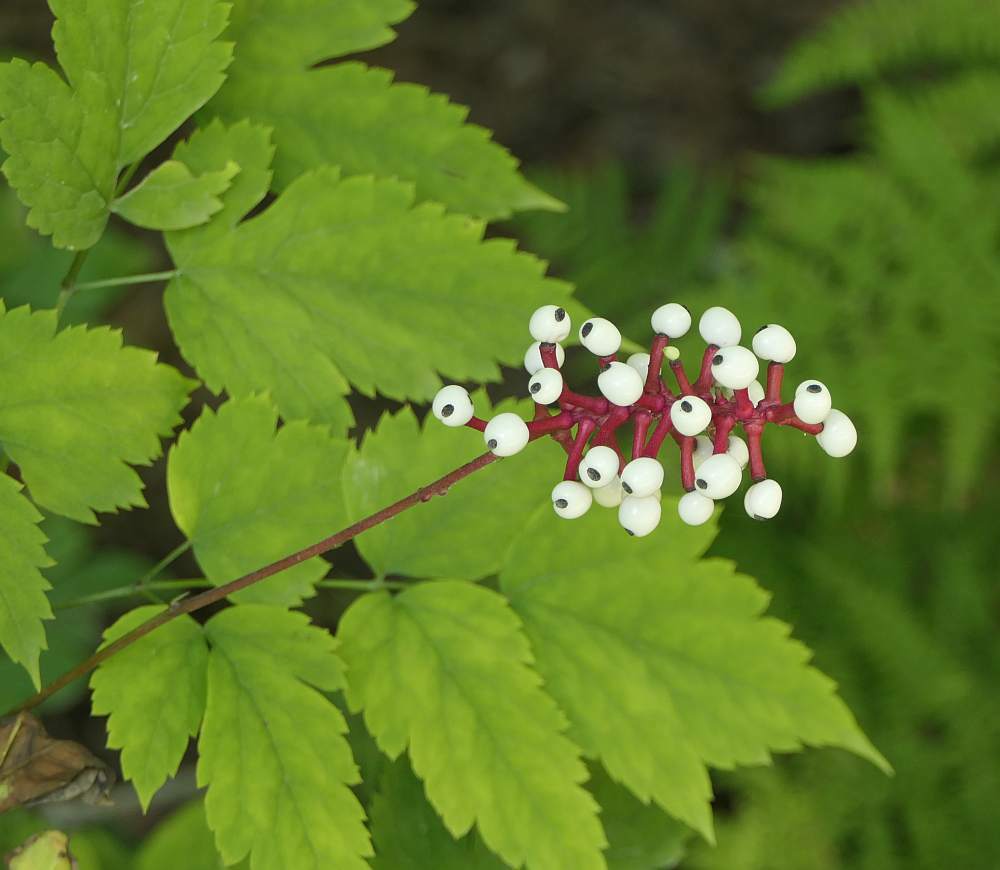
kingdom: Plantae
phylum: Tracheophyta
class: Magnoliopsida
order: Ranunculales
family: Ranunculaceae
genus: Actaea
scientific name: Actaea pachypoda
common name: Doll's-eyes
